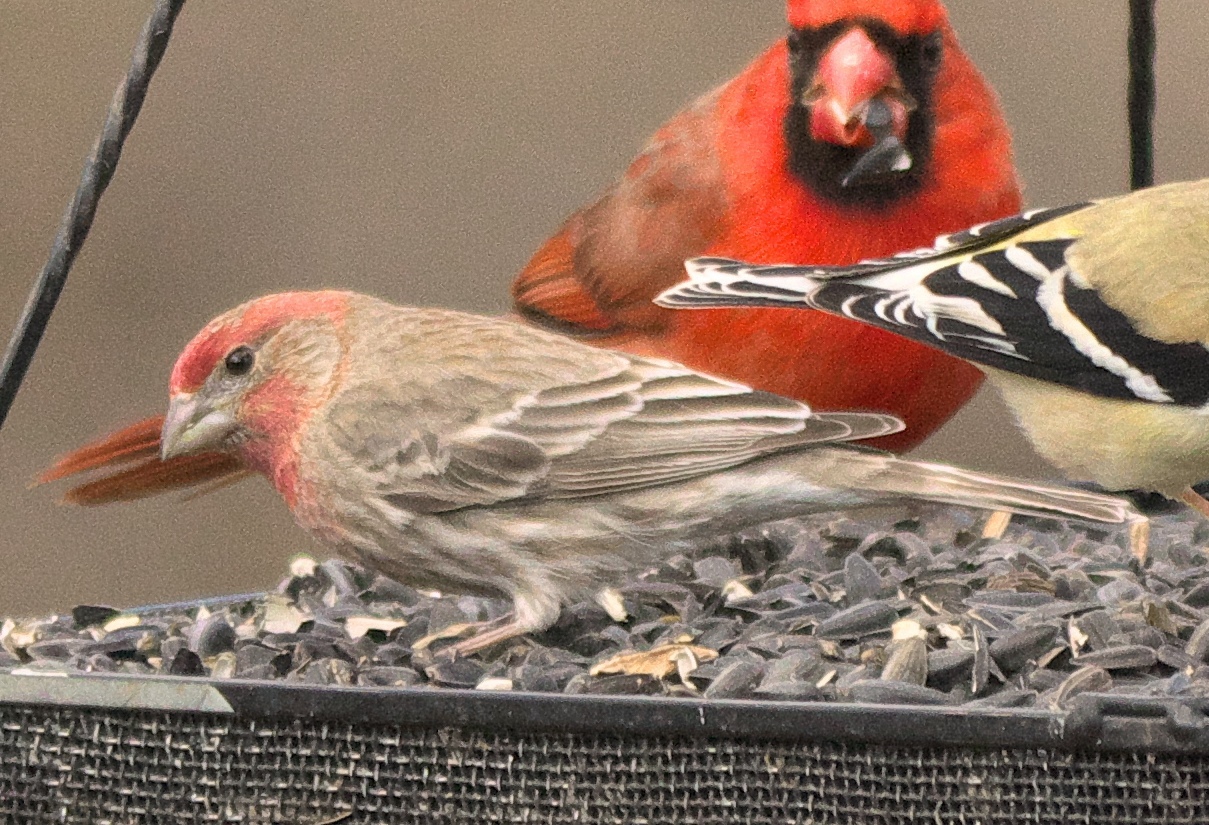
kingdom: Animalia
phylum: Chordata
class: Aves
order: Passeriformes
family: Fringillidae
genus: Haemorhous
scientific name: Haemorhous mexicanus
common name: House finch
